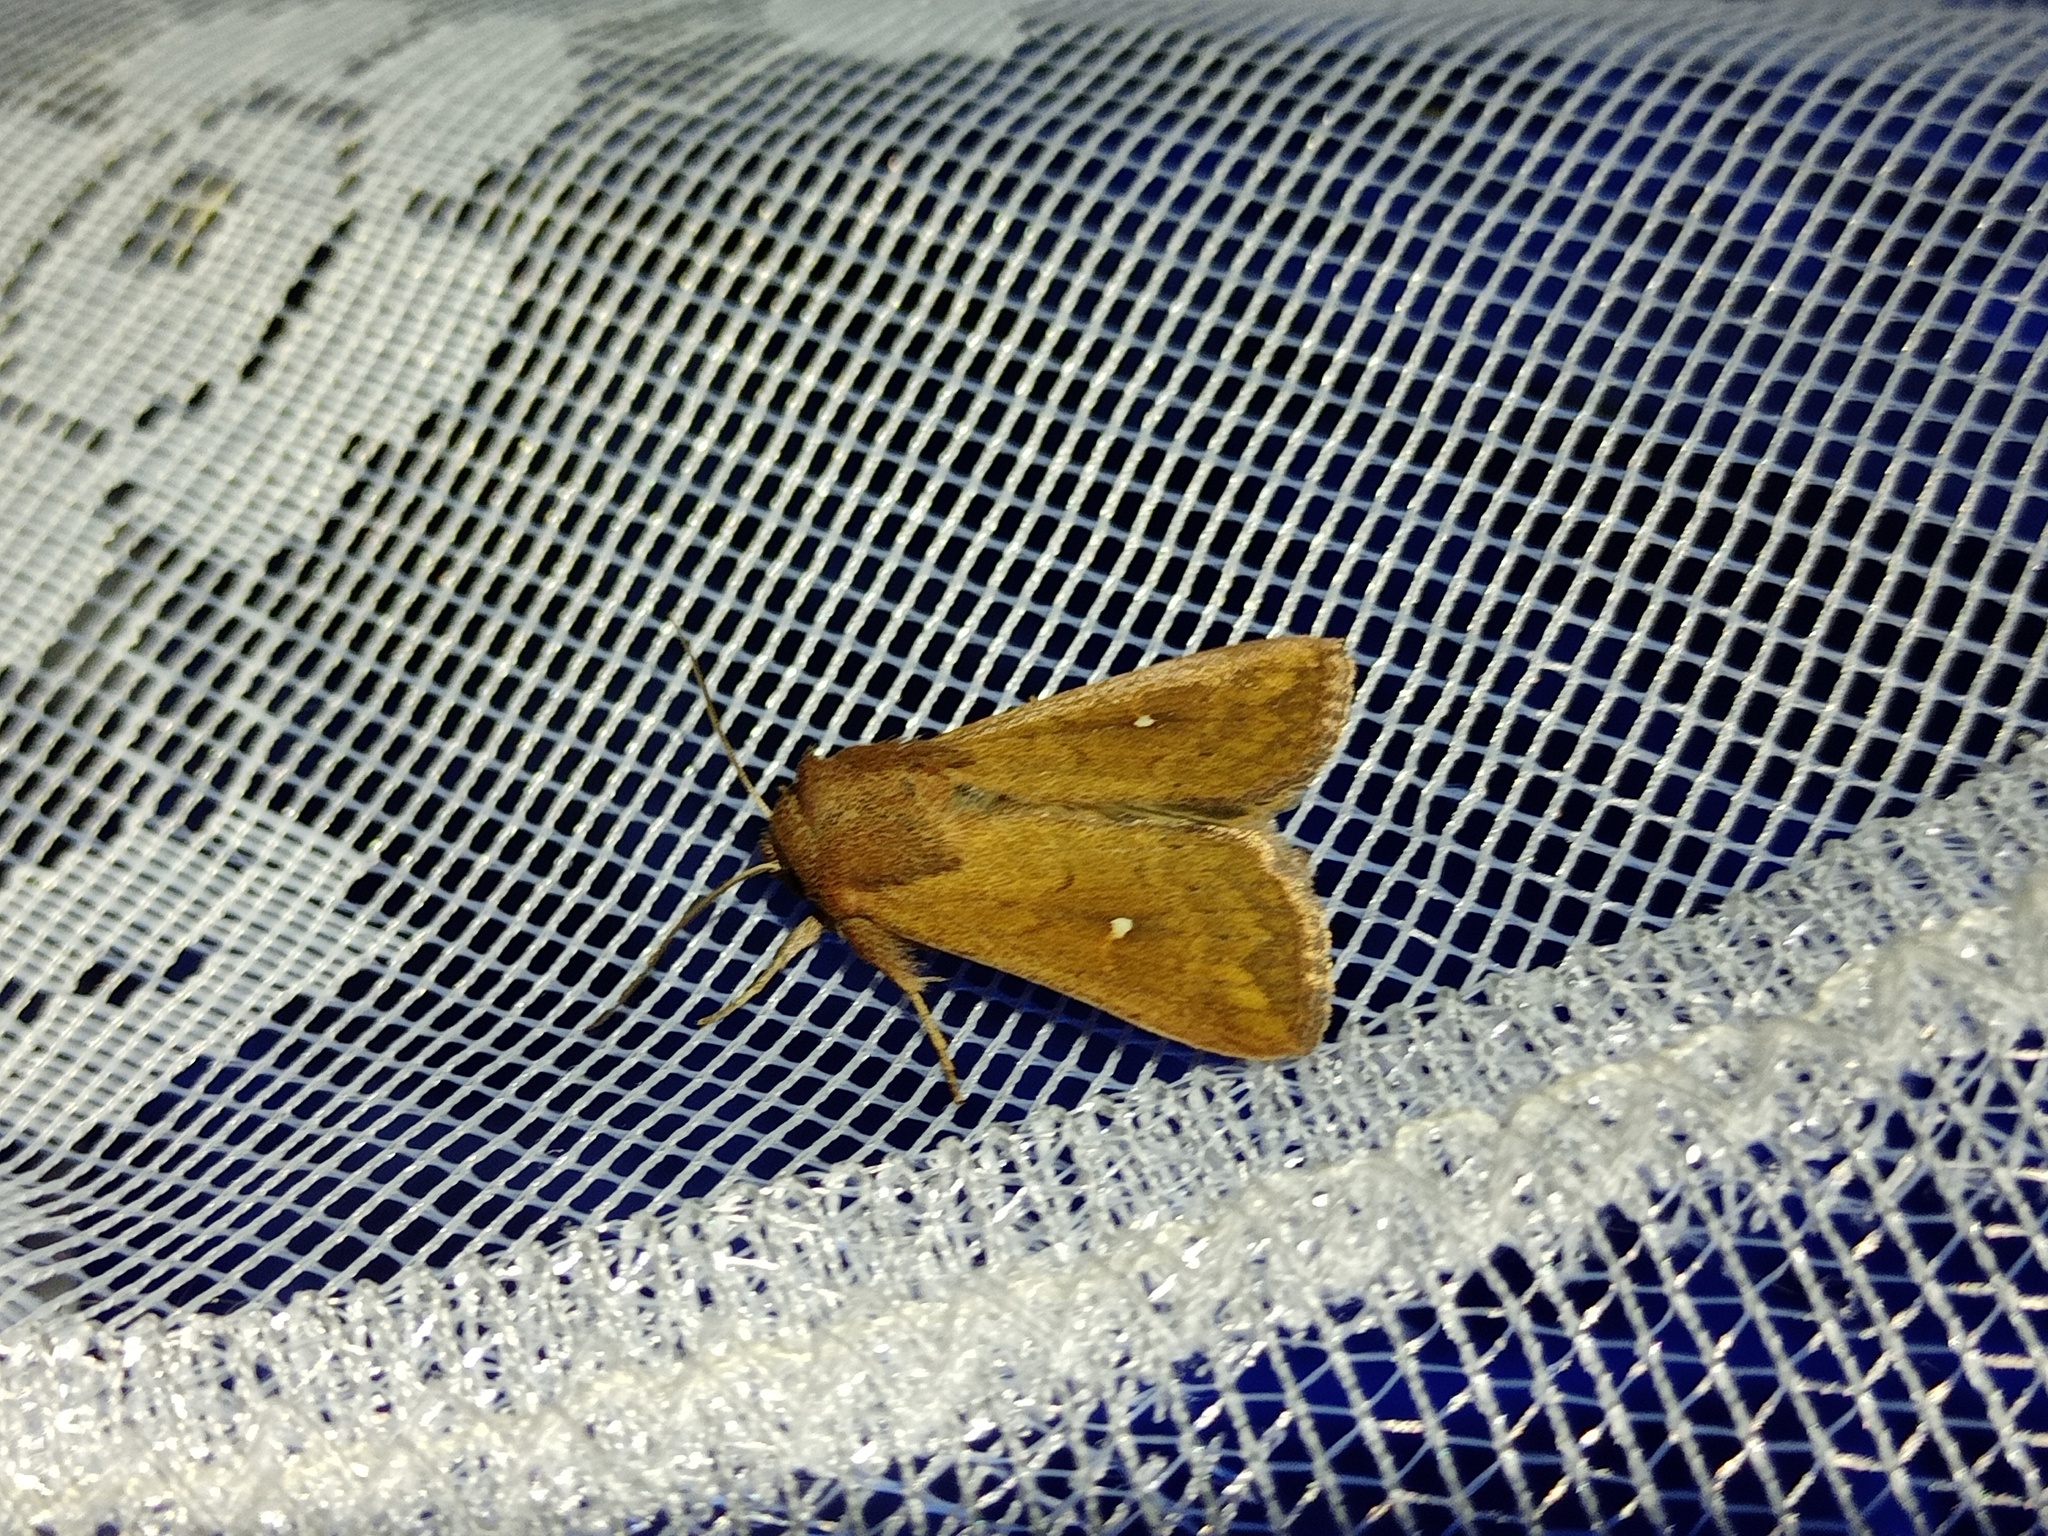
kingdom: Animalia
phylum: Arthropoda
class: Insecta
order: Lepidoptera
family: Noctuidae
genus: Mythimna
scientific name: Mythimna albipuncta
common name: White-point
